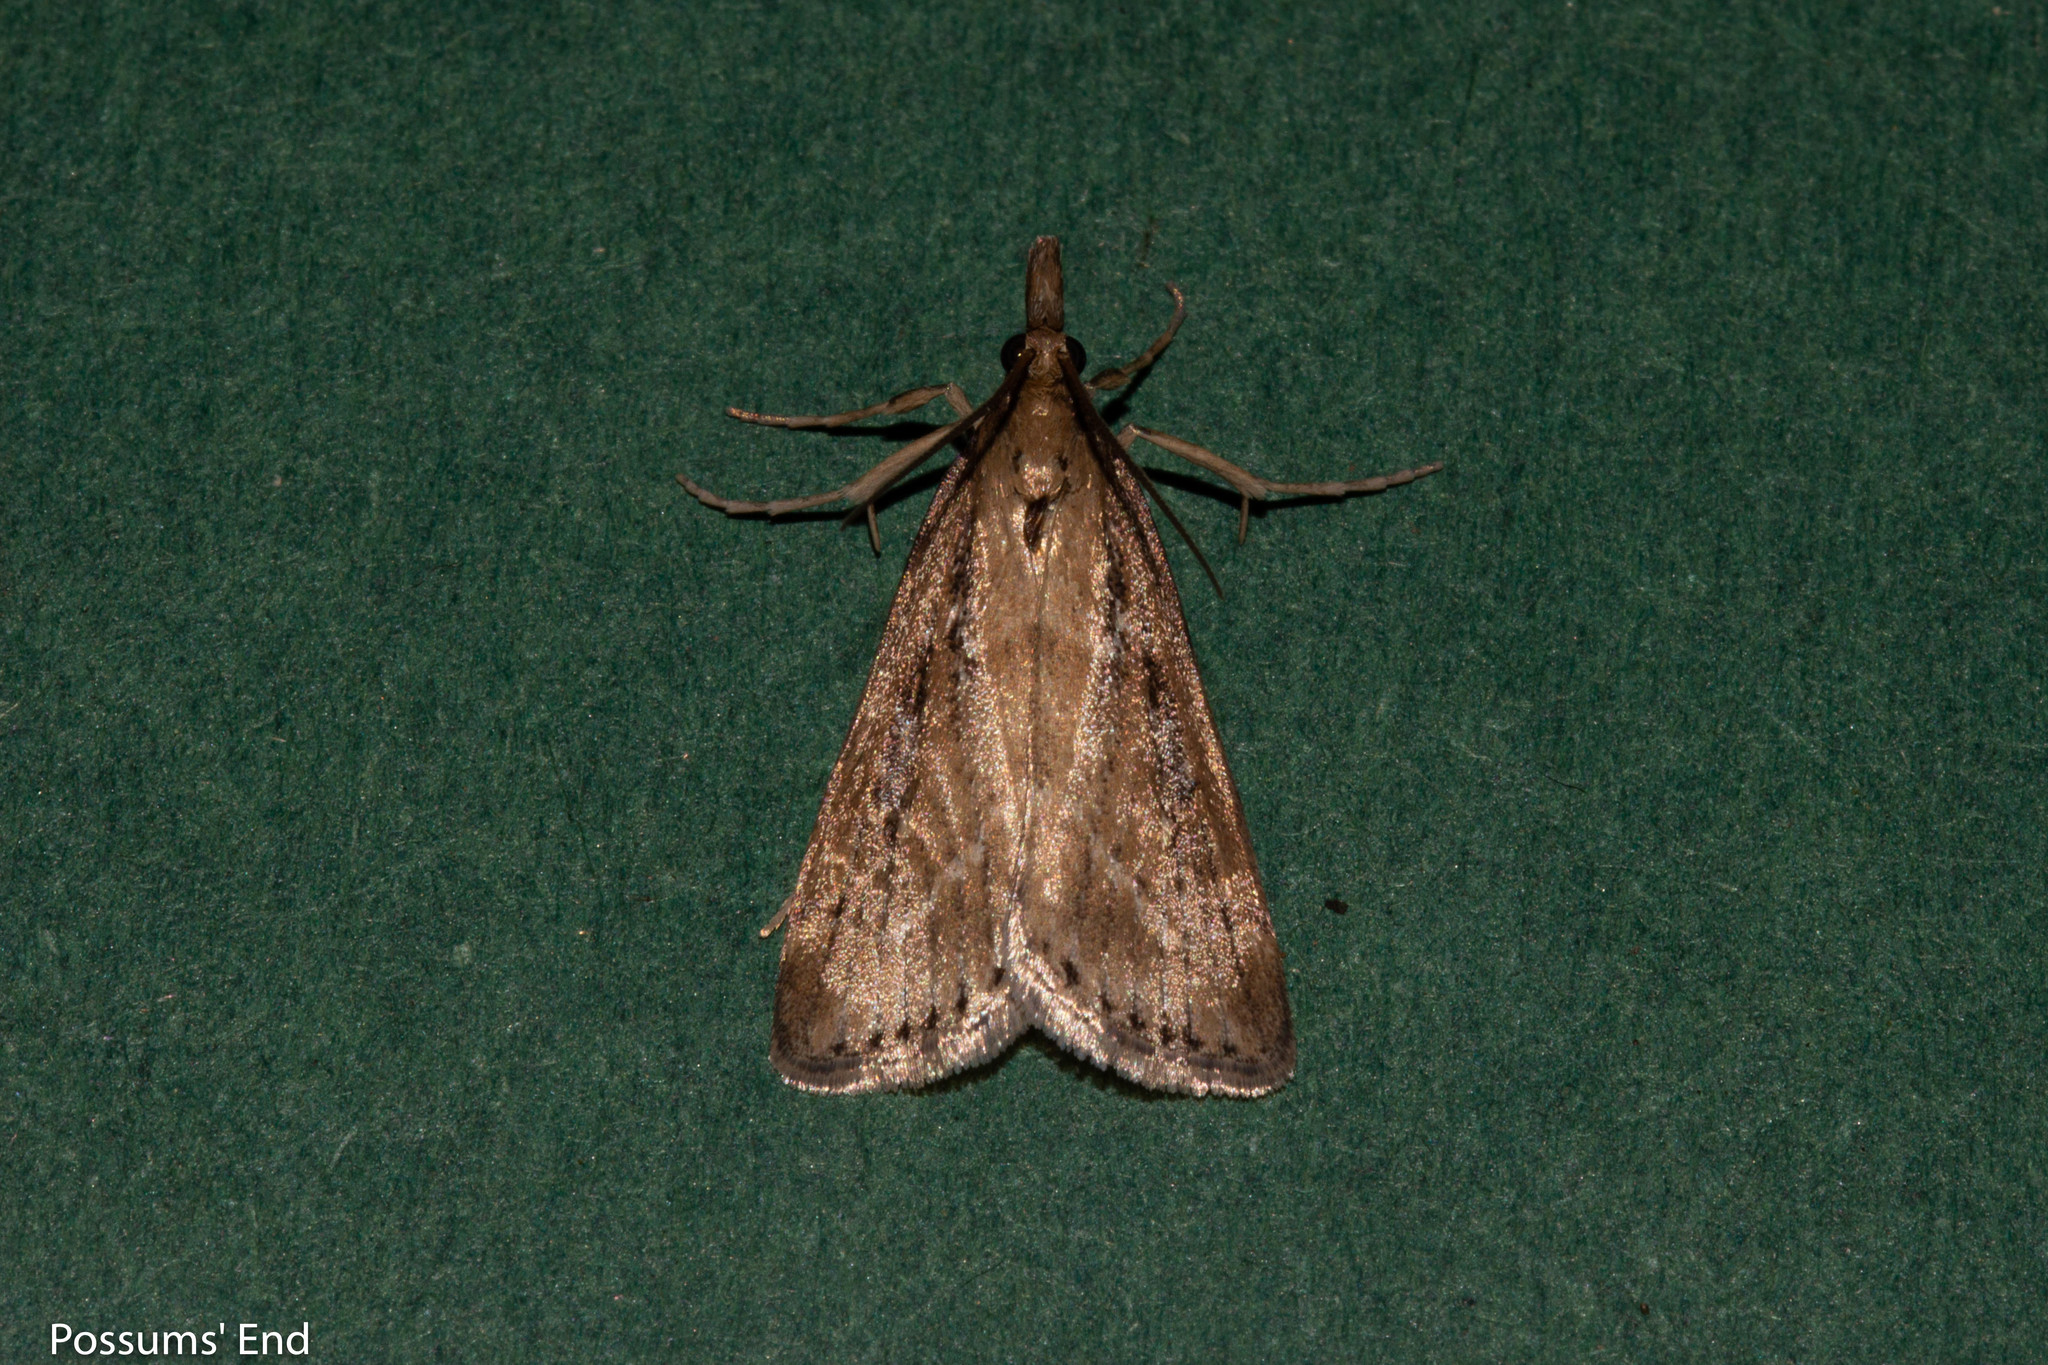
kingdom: Animalia
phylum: Arthropoda
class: Insecta
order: Lepidoptera
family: Crambidae
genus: Eudonia
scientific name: Eudonia octophora
